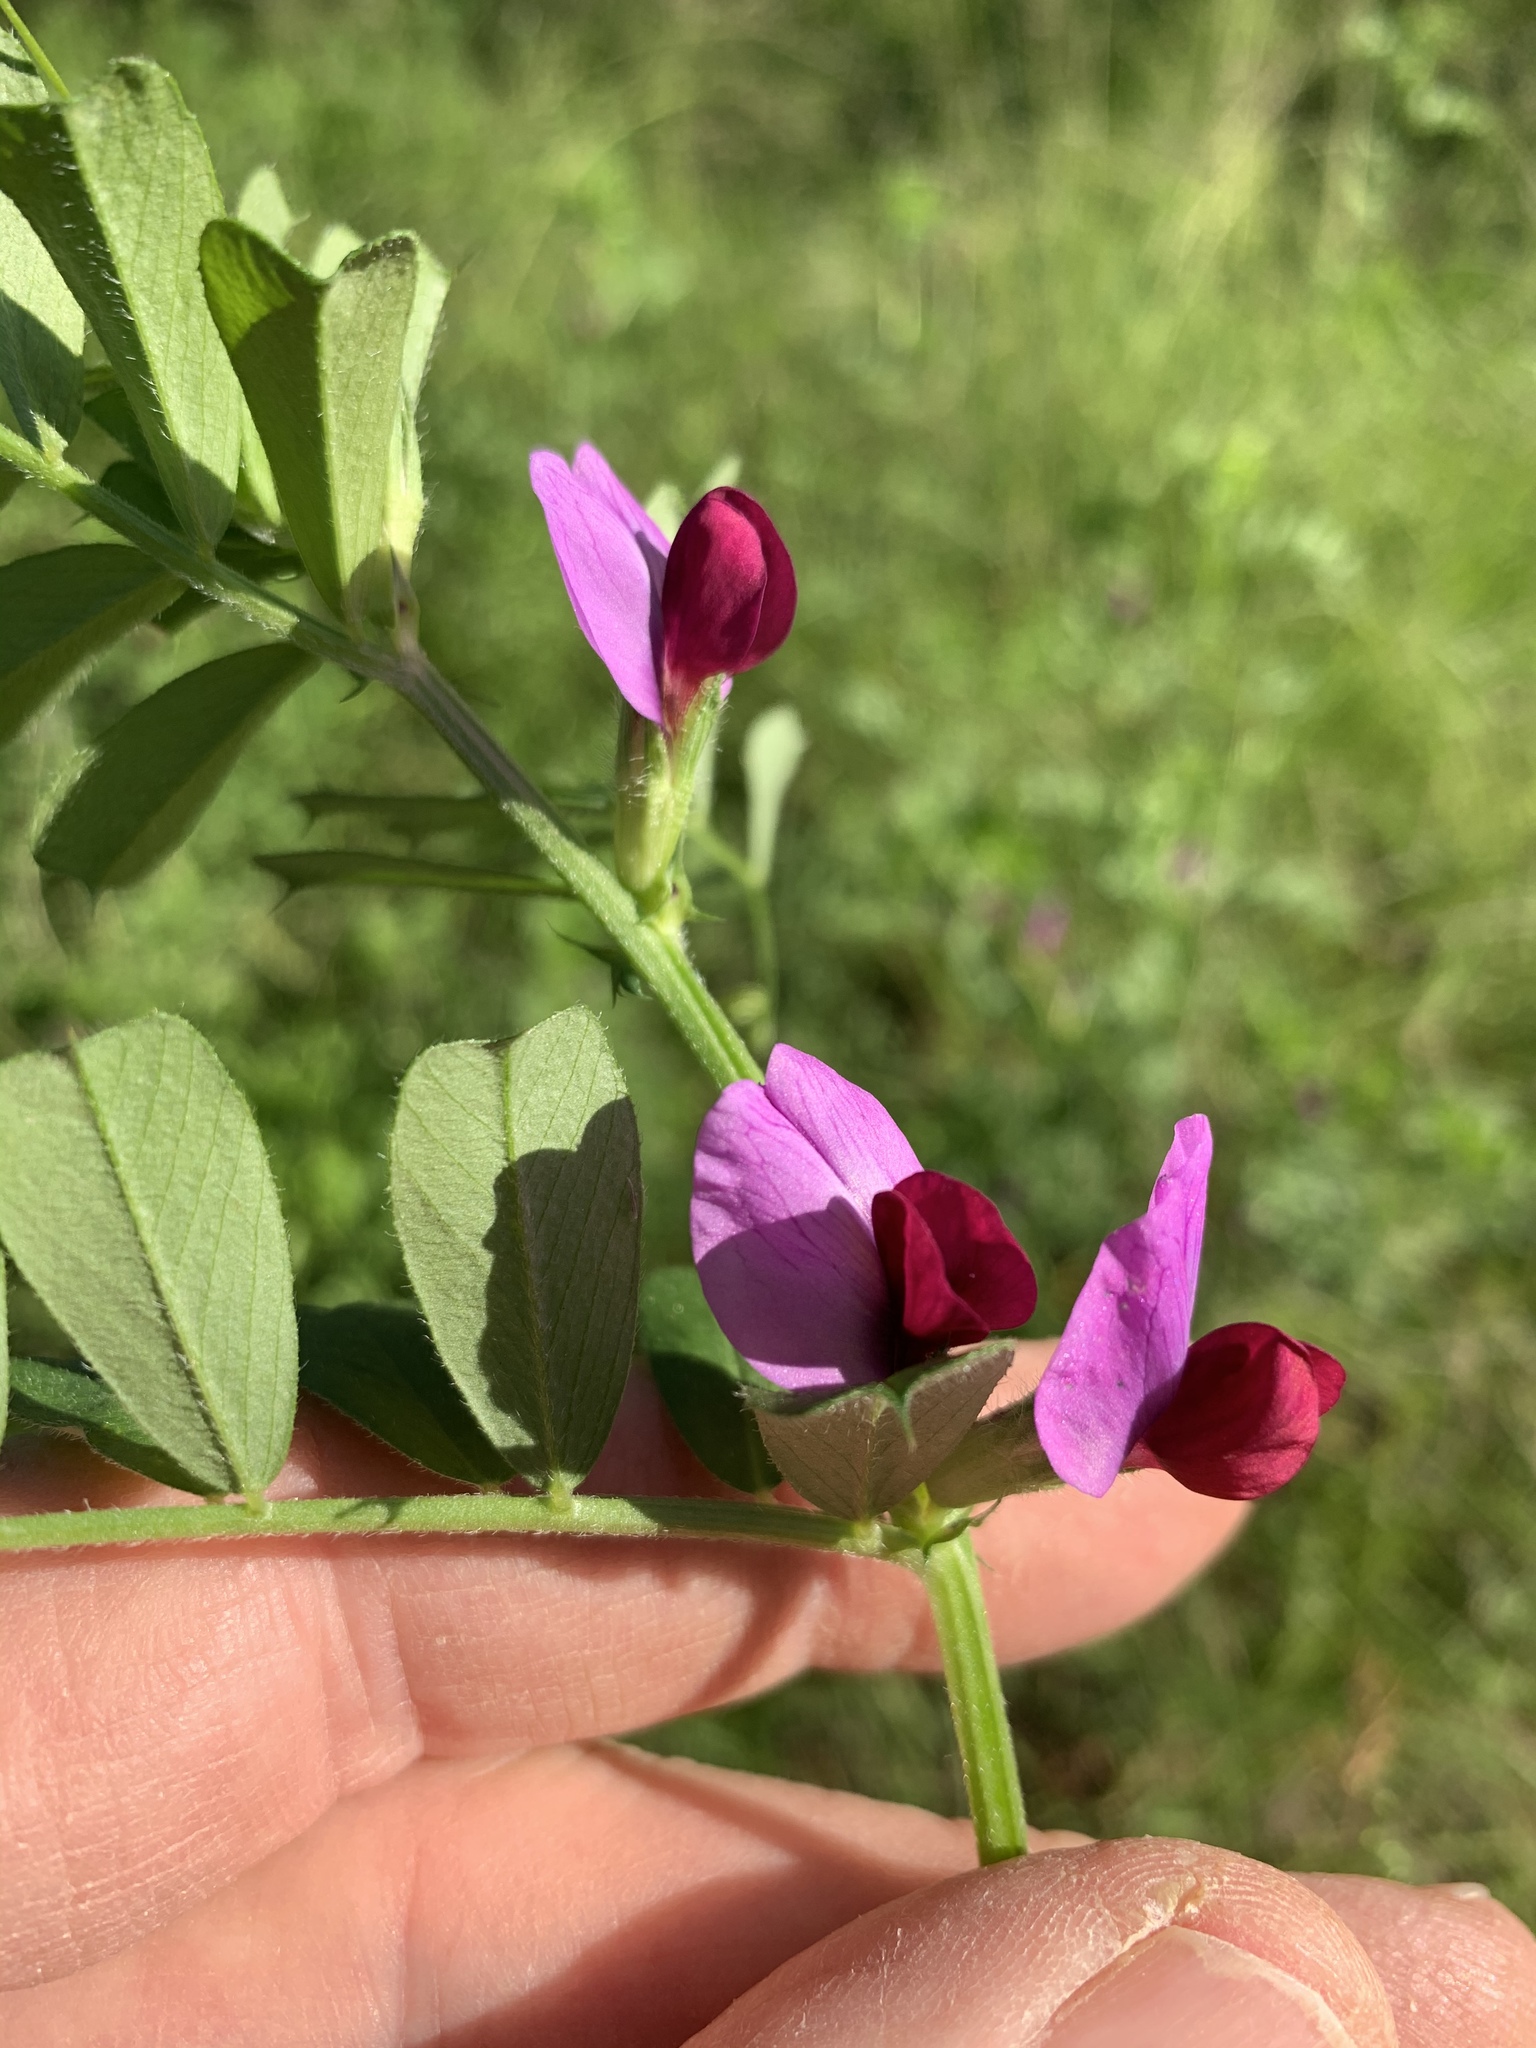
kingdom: Plantae
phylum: Tracheophyta
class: Magnoliopsida
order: Fabales
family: Fabaceae
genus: Vicia
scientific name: Vicia sativa
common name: Garden vetch
